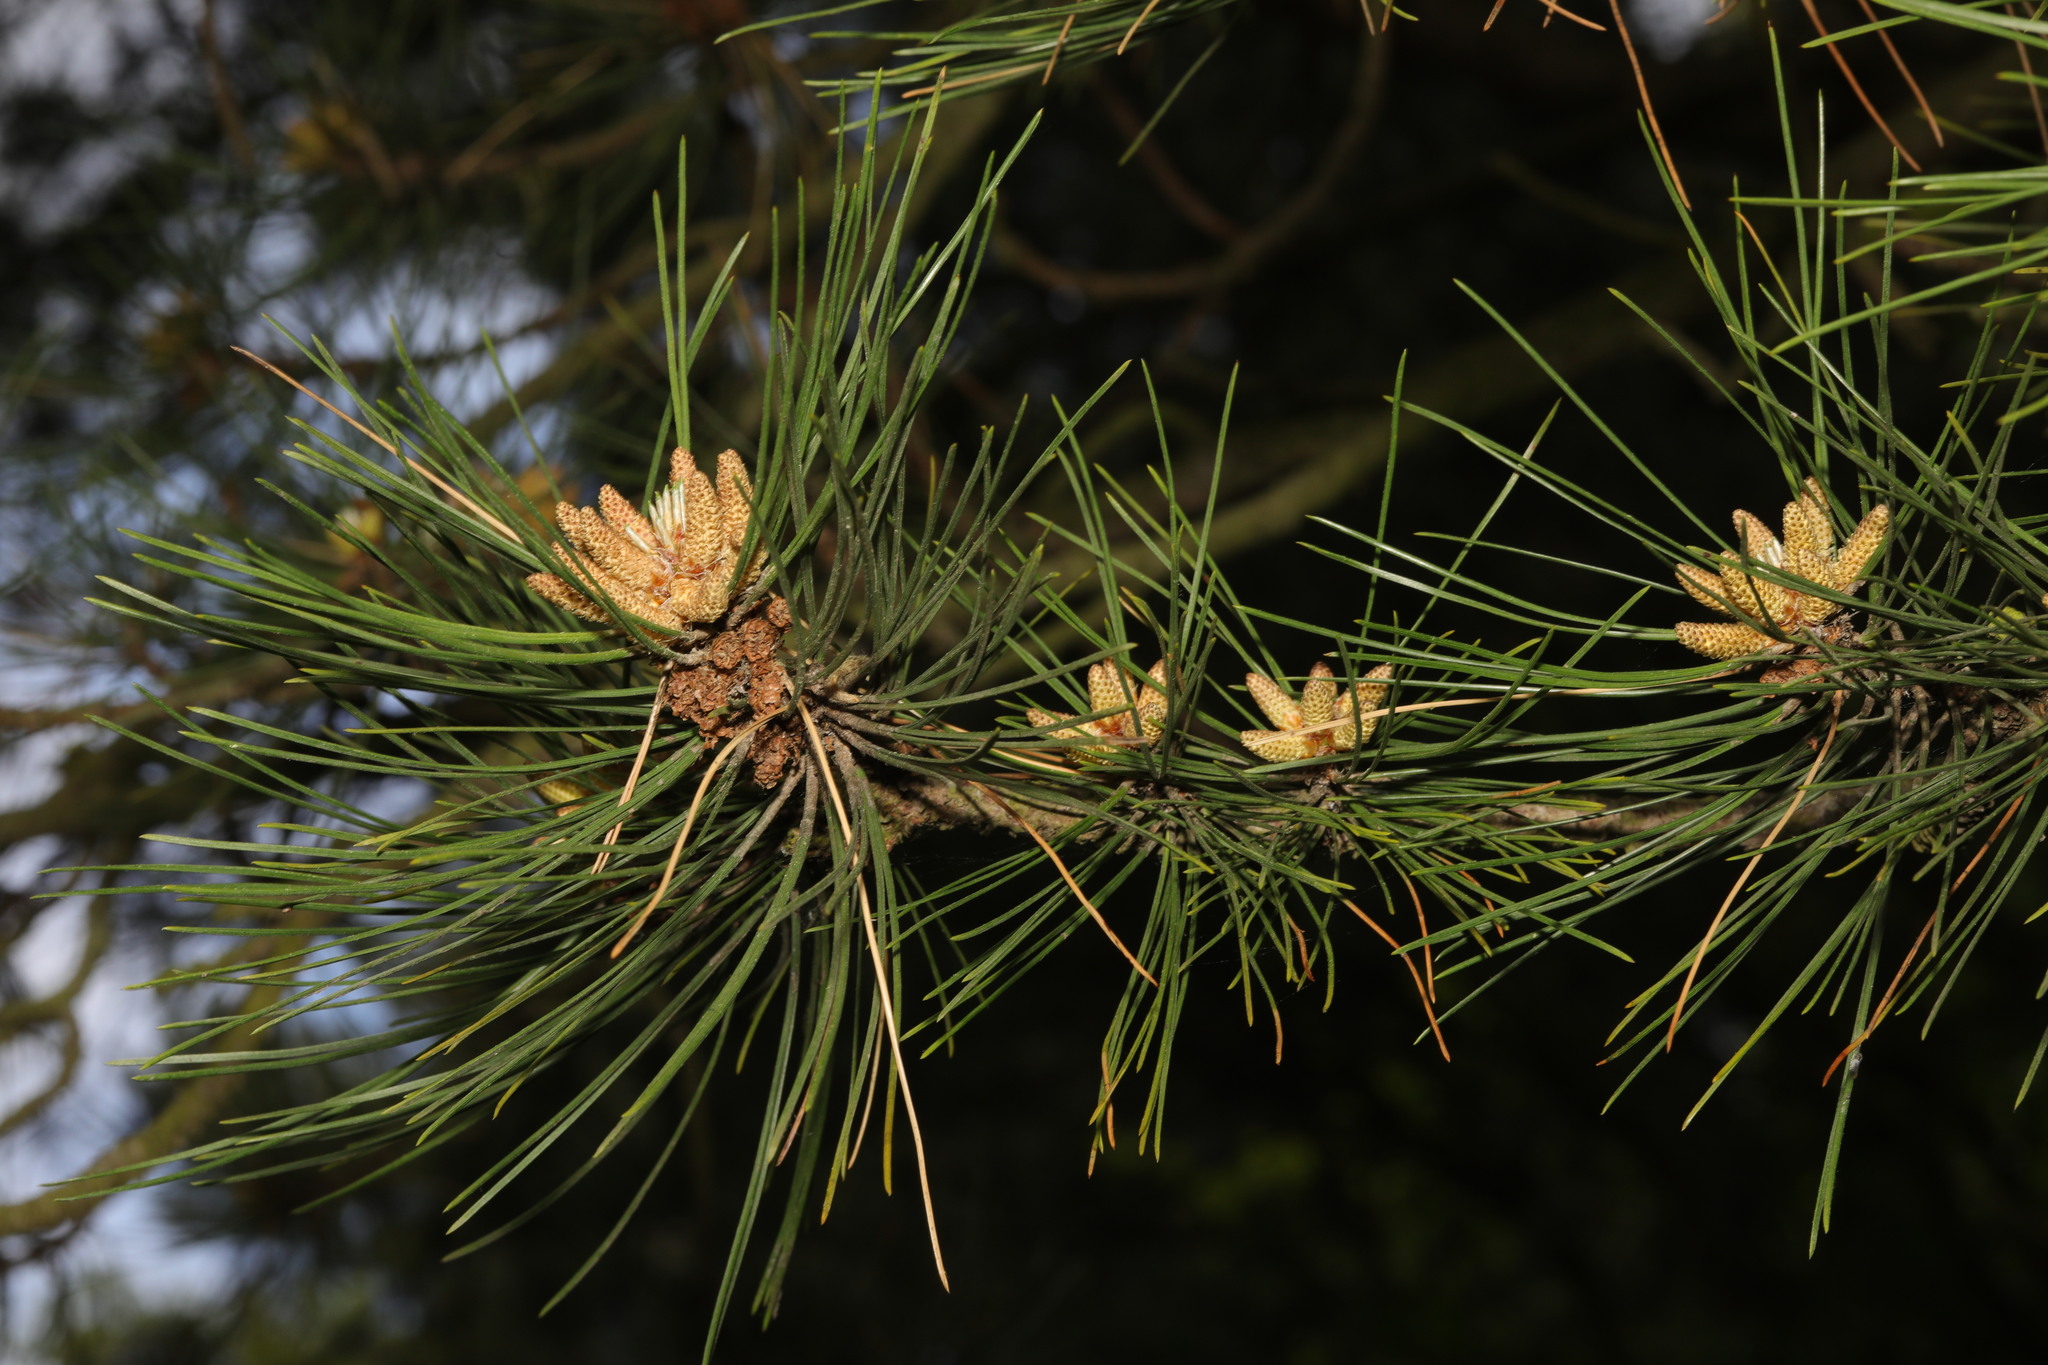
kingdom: Plantae
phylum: Tracheophyta
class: Pinopsida
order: Pinales
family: Pinaceae
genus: Pinus
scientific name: Pinus sylvestris
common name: Scots pine
